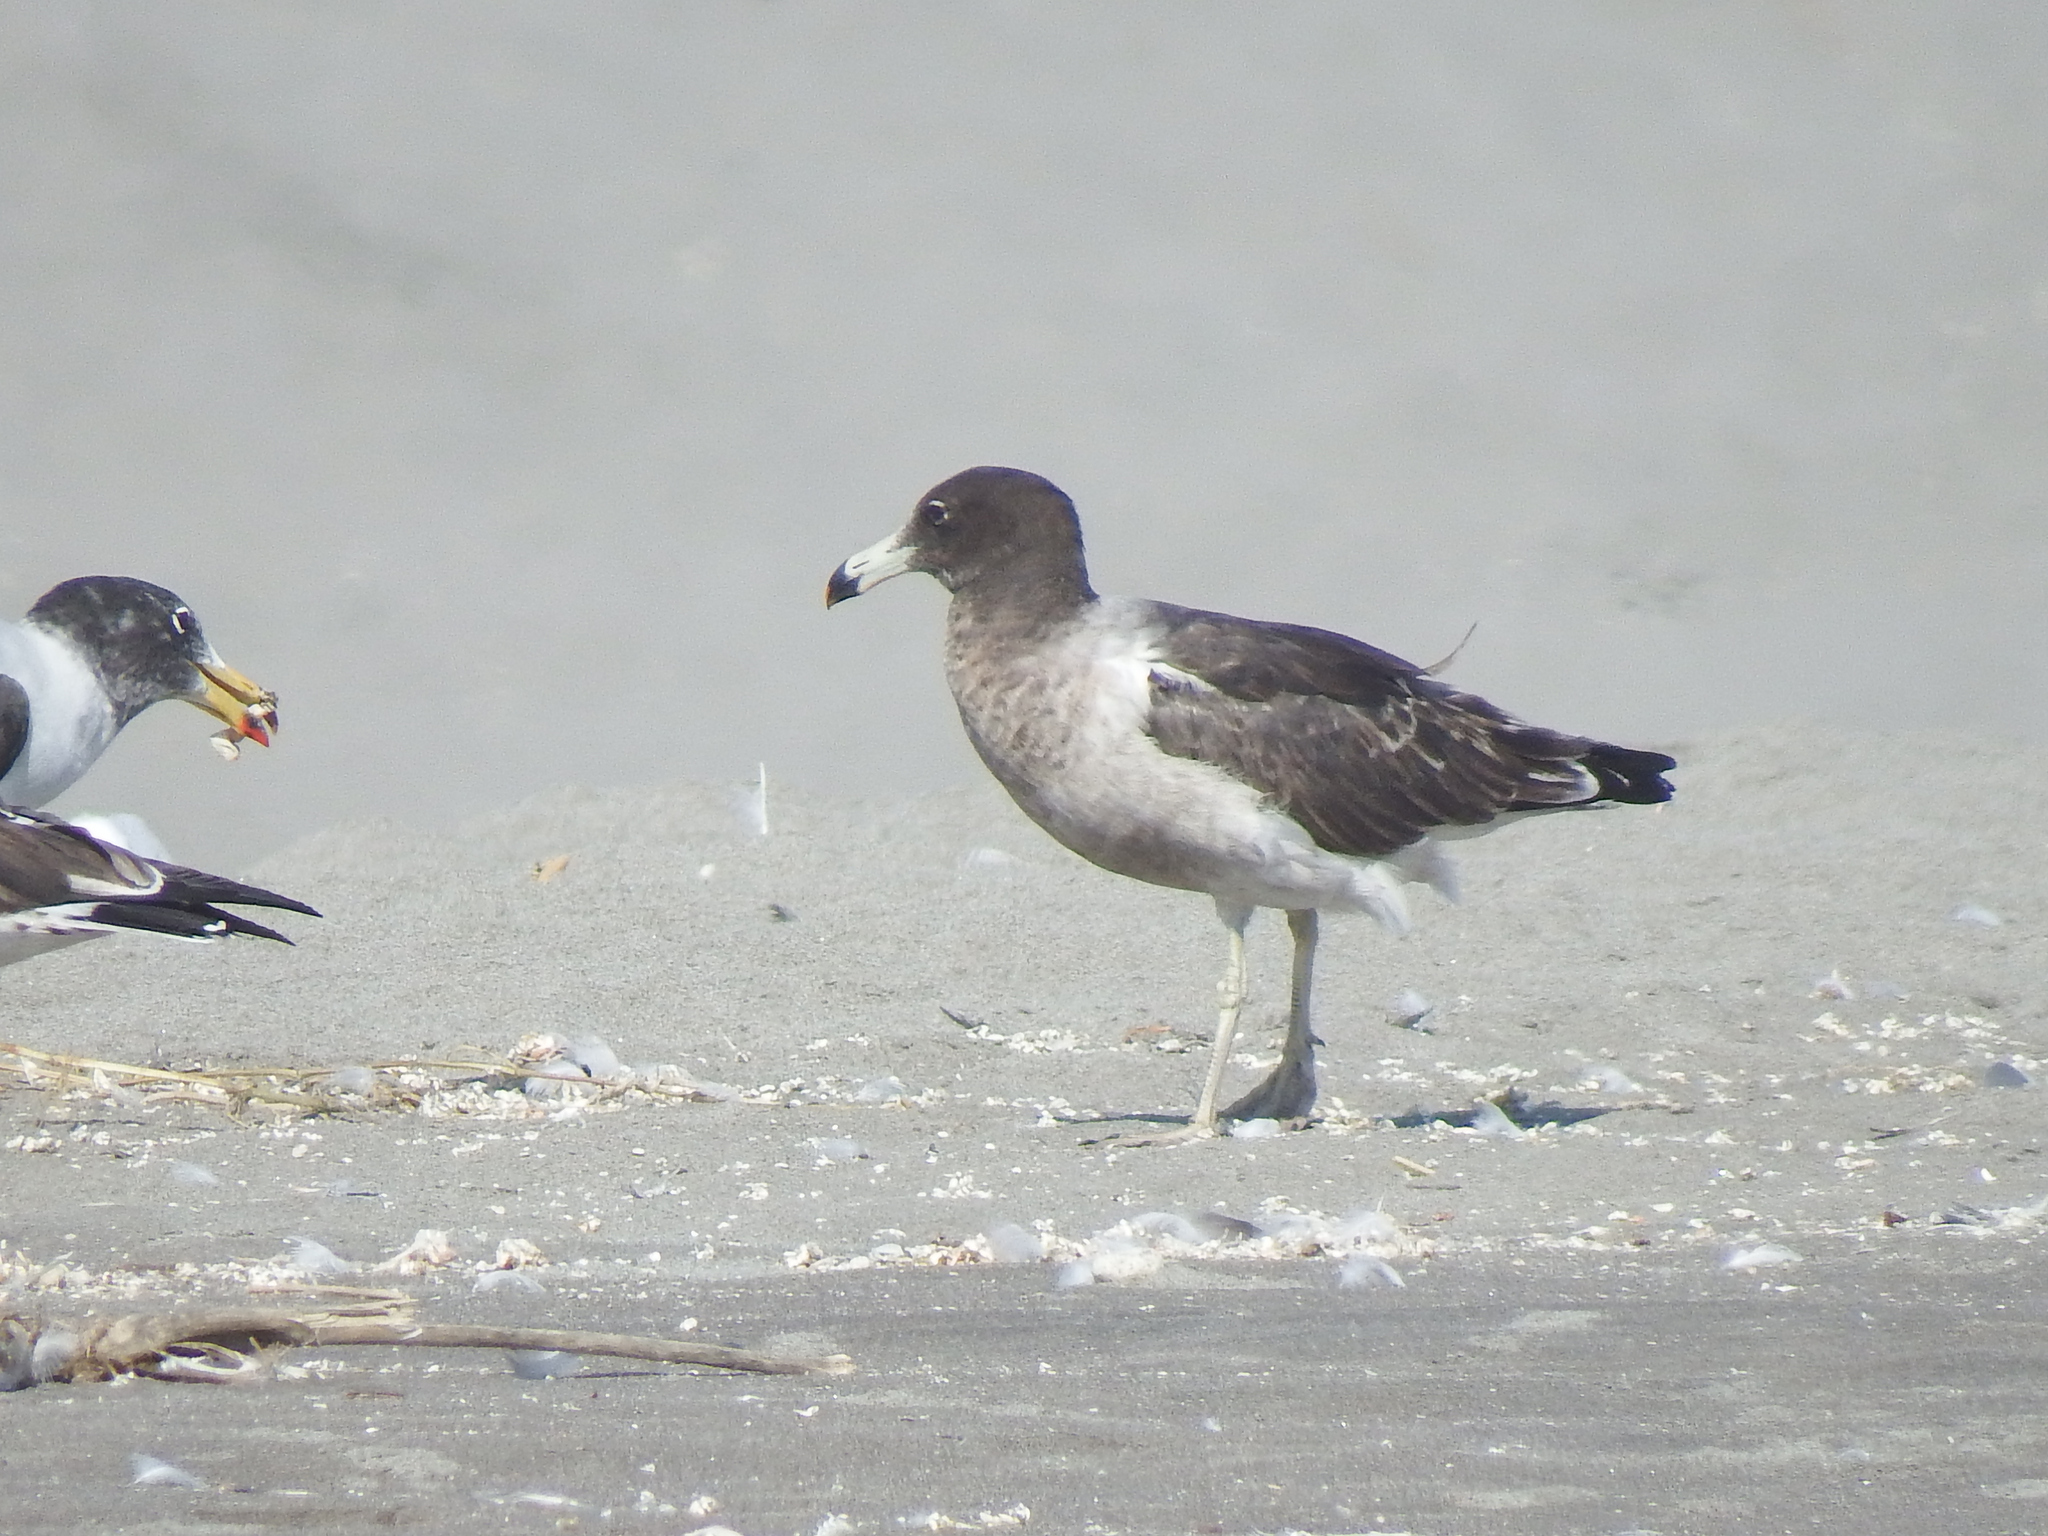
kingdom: Animalia
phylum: Chordata
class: Aves
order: Charadriiformes
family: Laridae
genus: Larus
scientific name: Larus belcheri
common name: Belcher's gull
